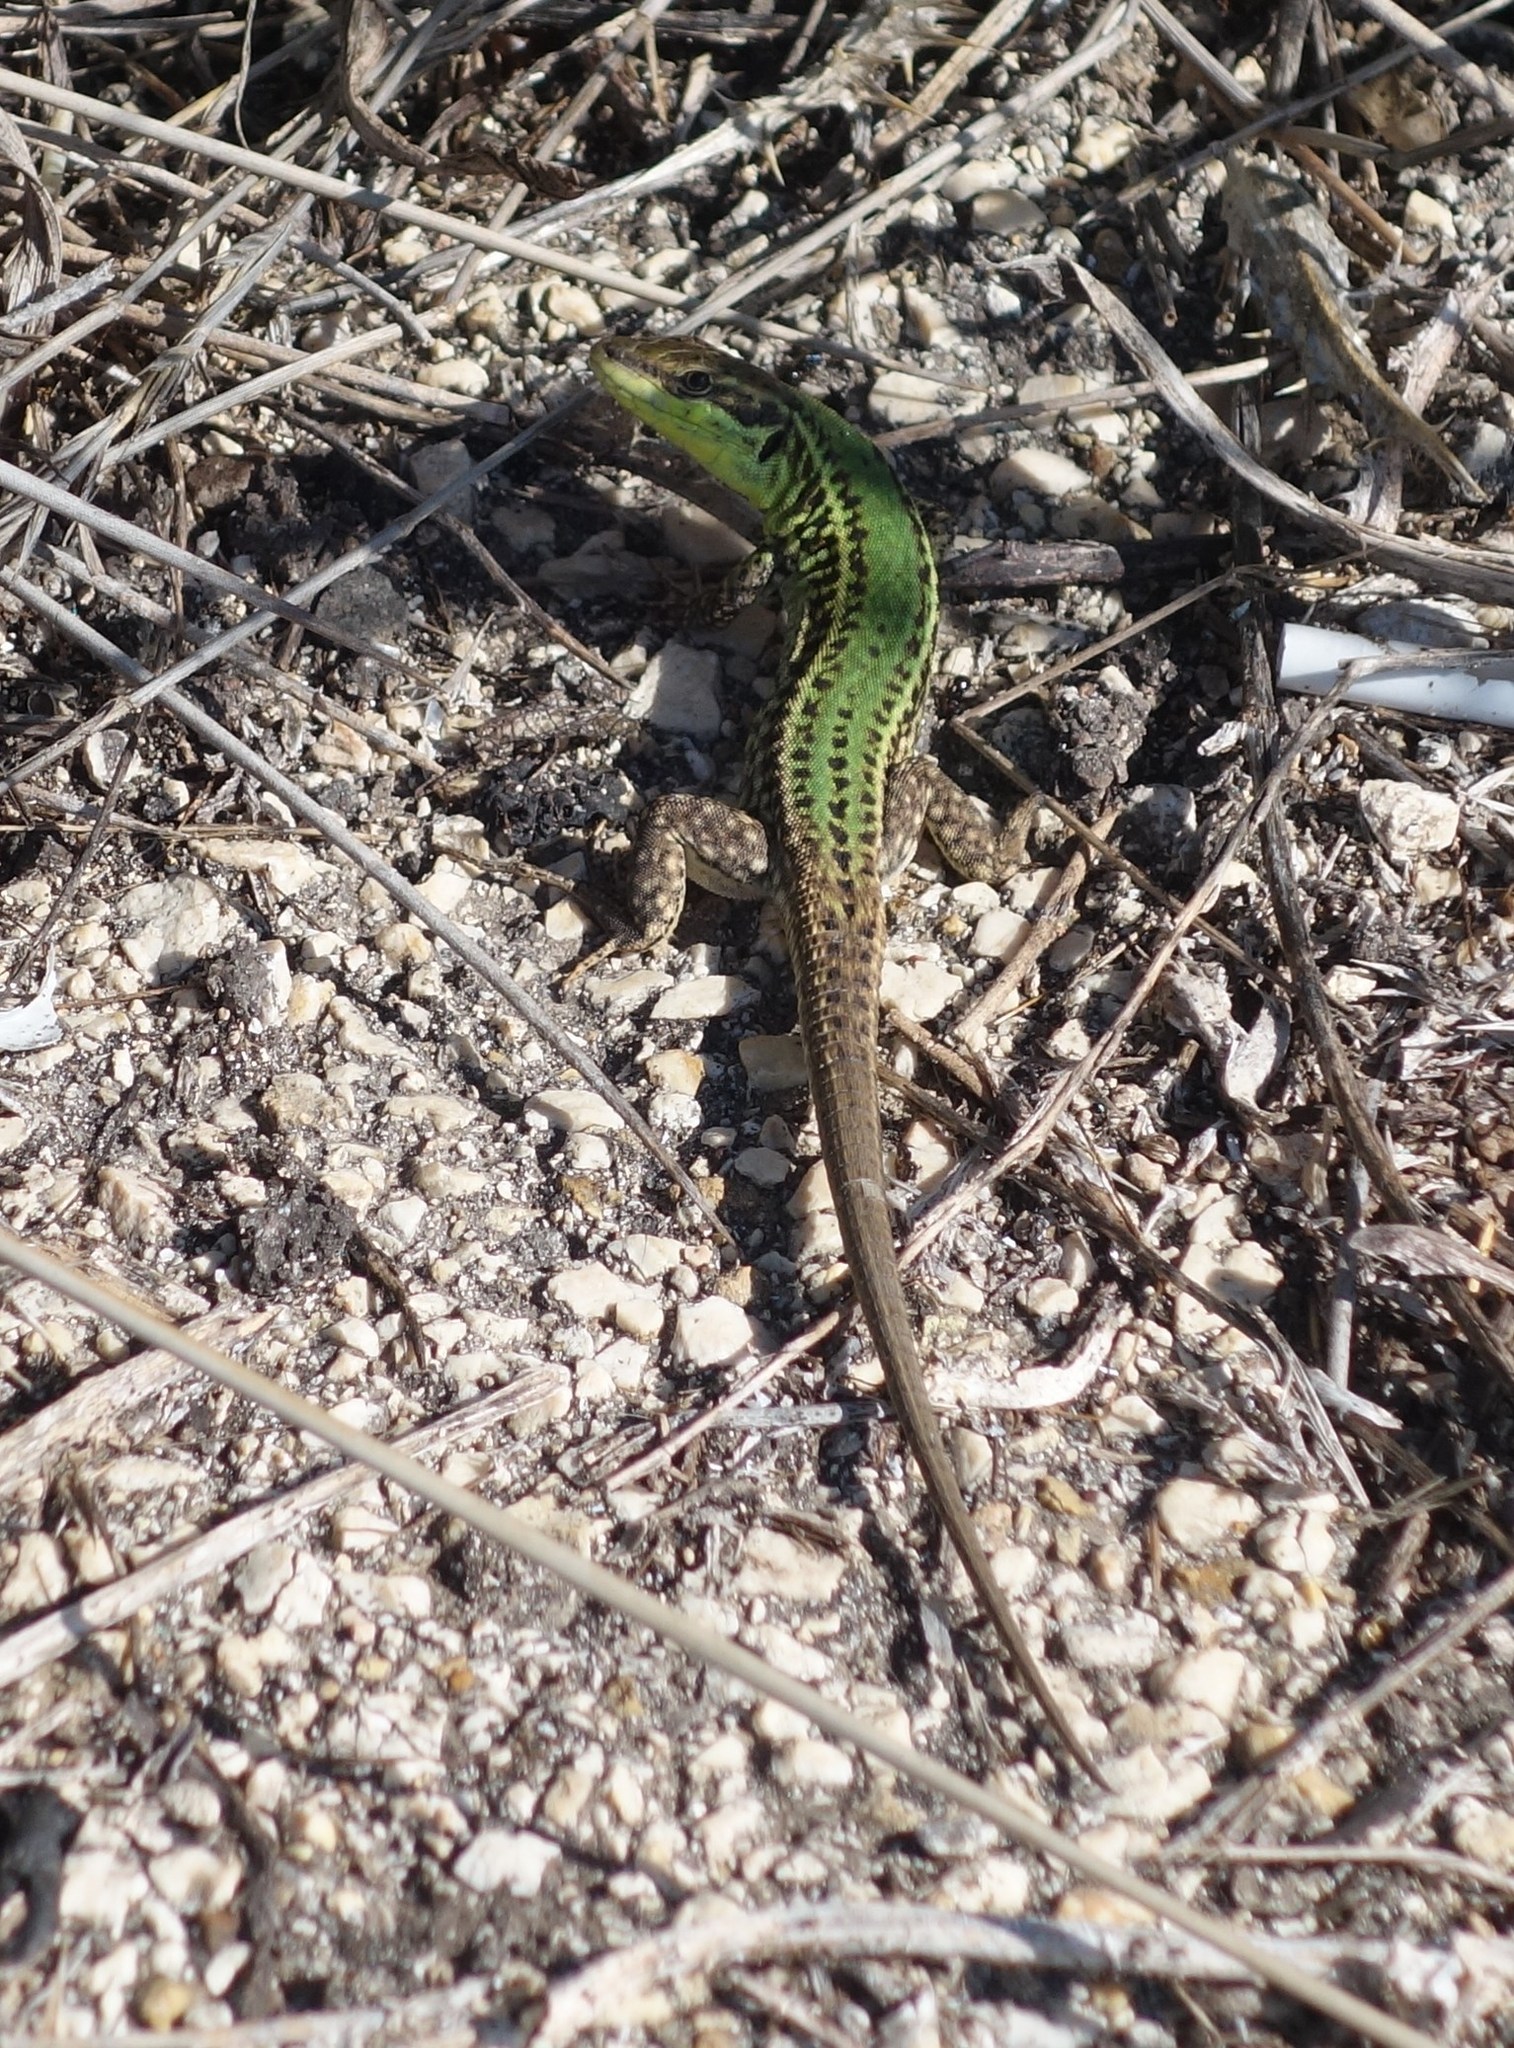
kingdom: Animalia
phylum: Chordata
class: Squamata
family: Lacertidae
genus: Podarcis
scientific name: Podarcis waglerianus
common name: Sicilian wall lizard
